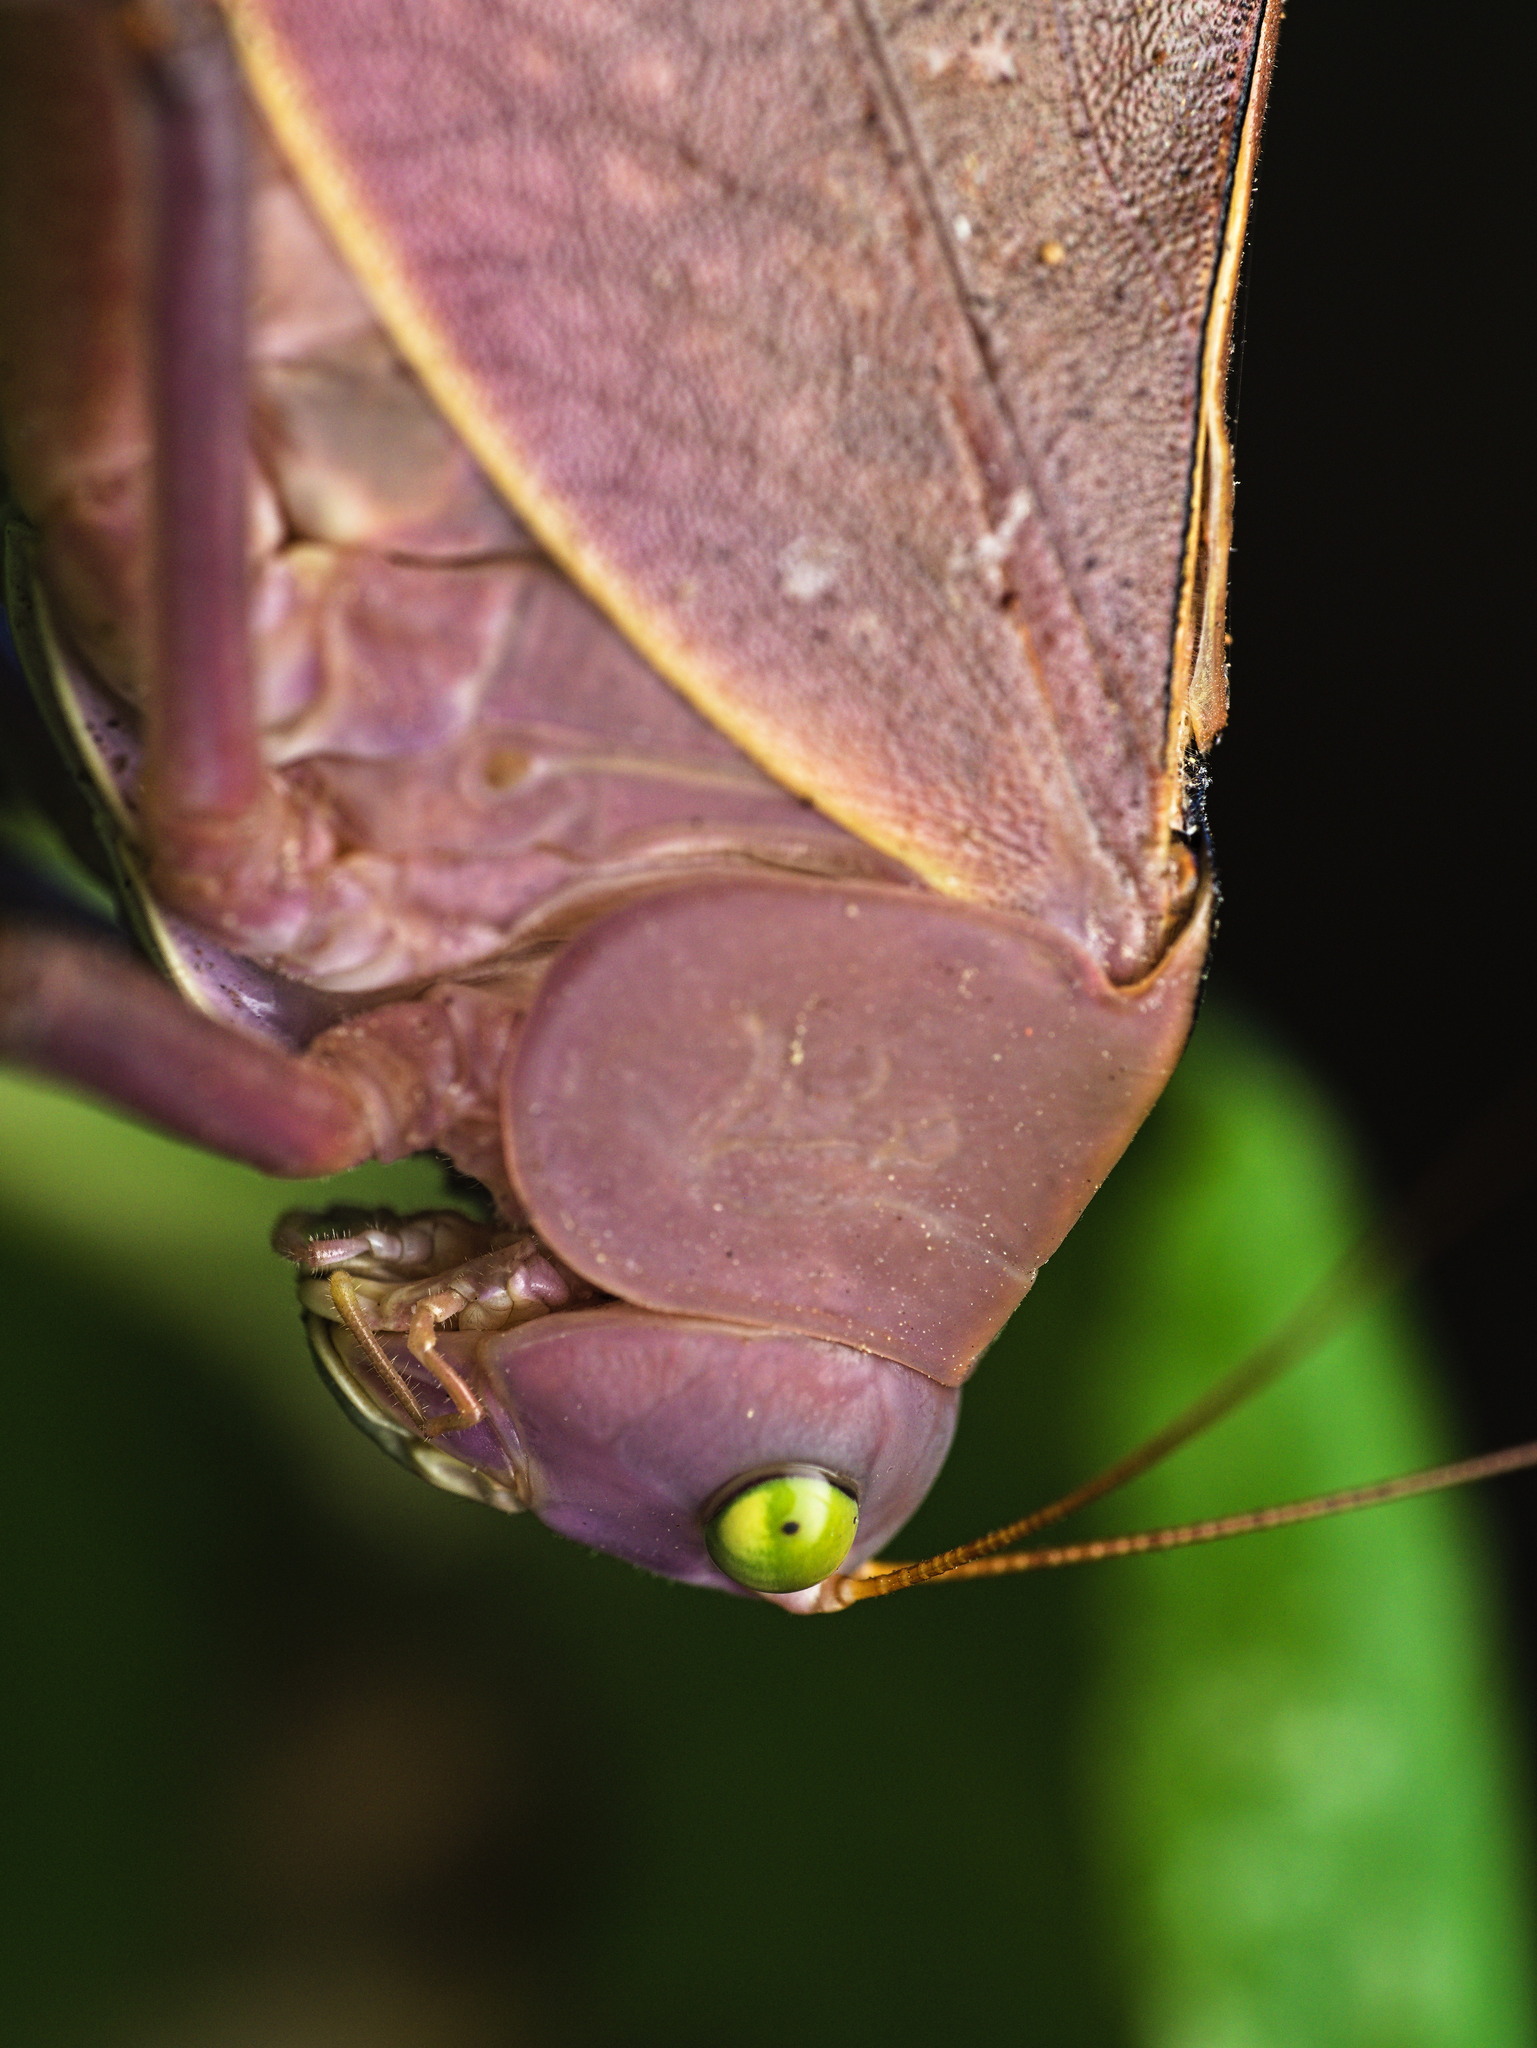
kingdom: Animalia
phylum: Arthropoda
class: Insecta
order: Orthoptera
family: Tettigoniidae
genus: Stilpnochlora
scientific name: Stilpnochlora azteca
